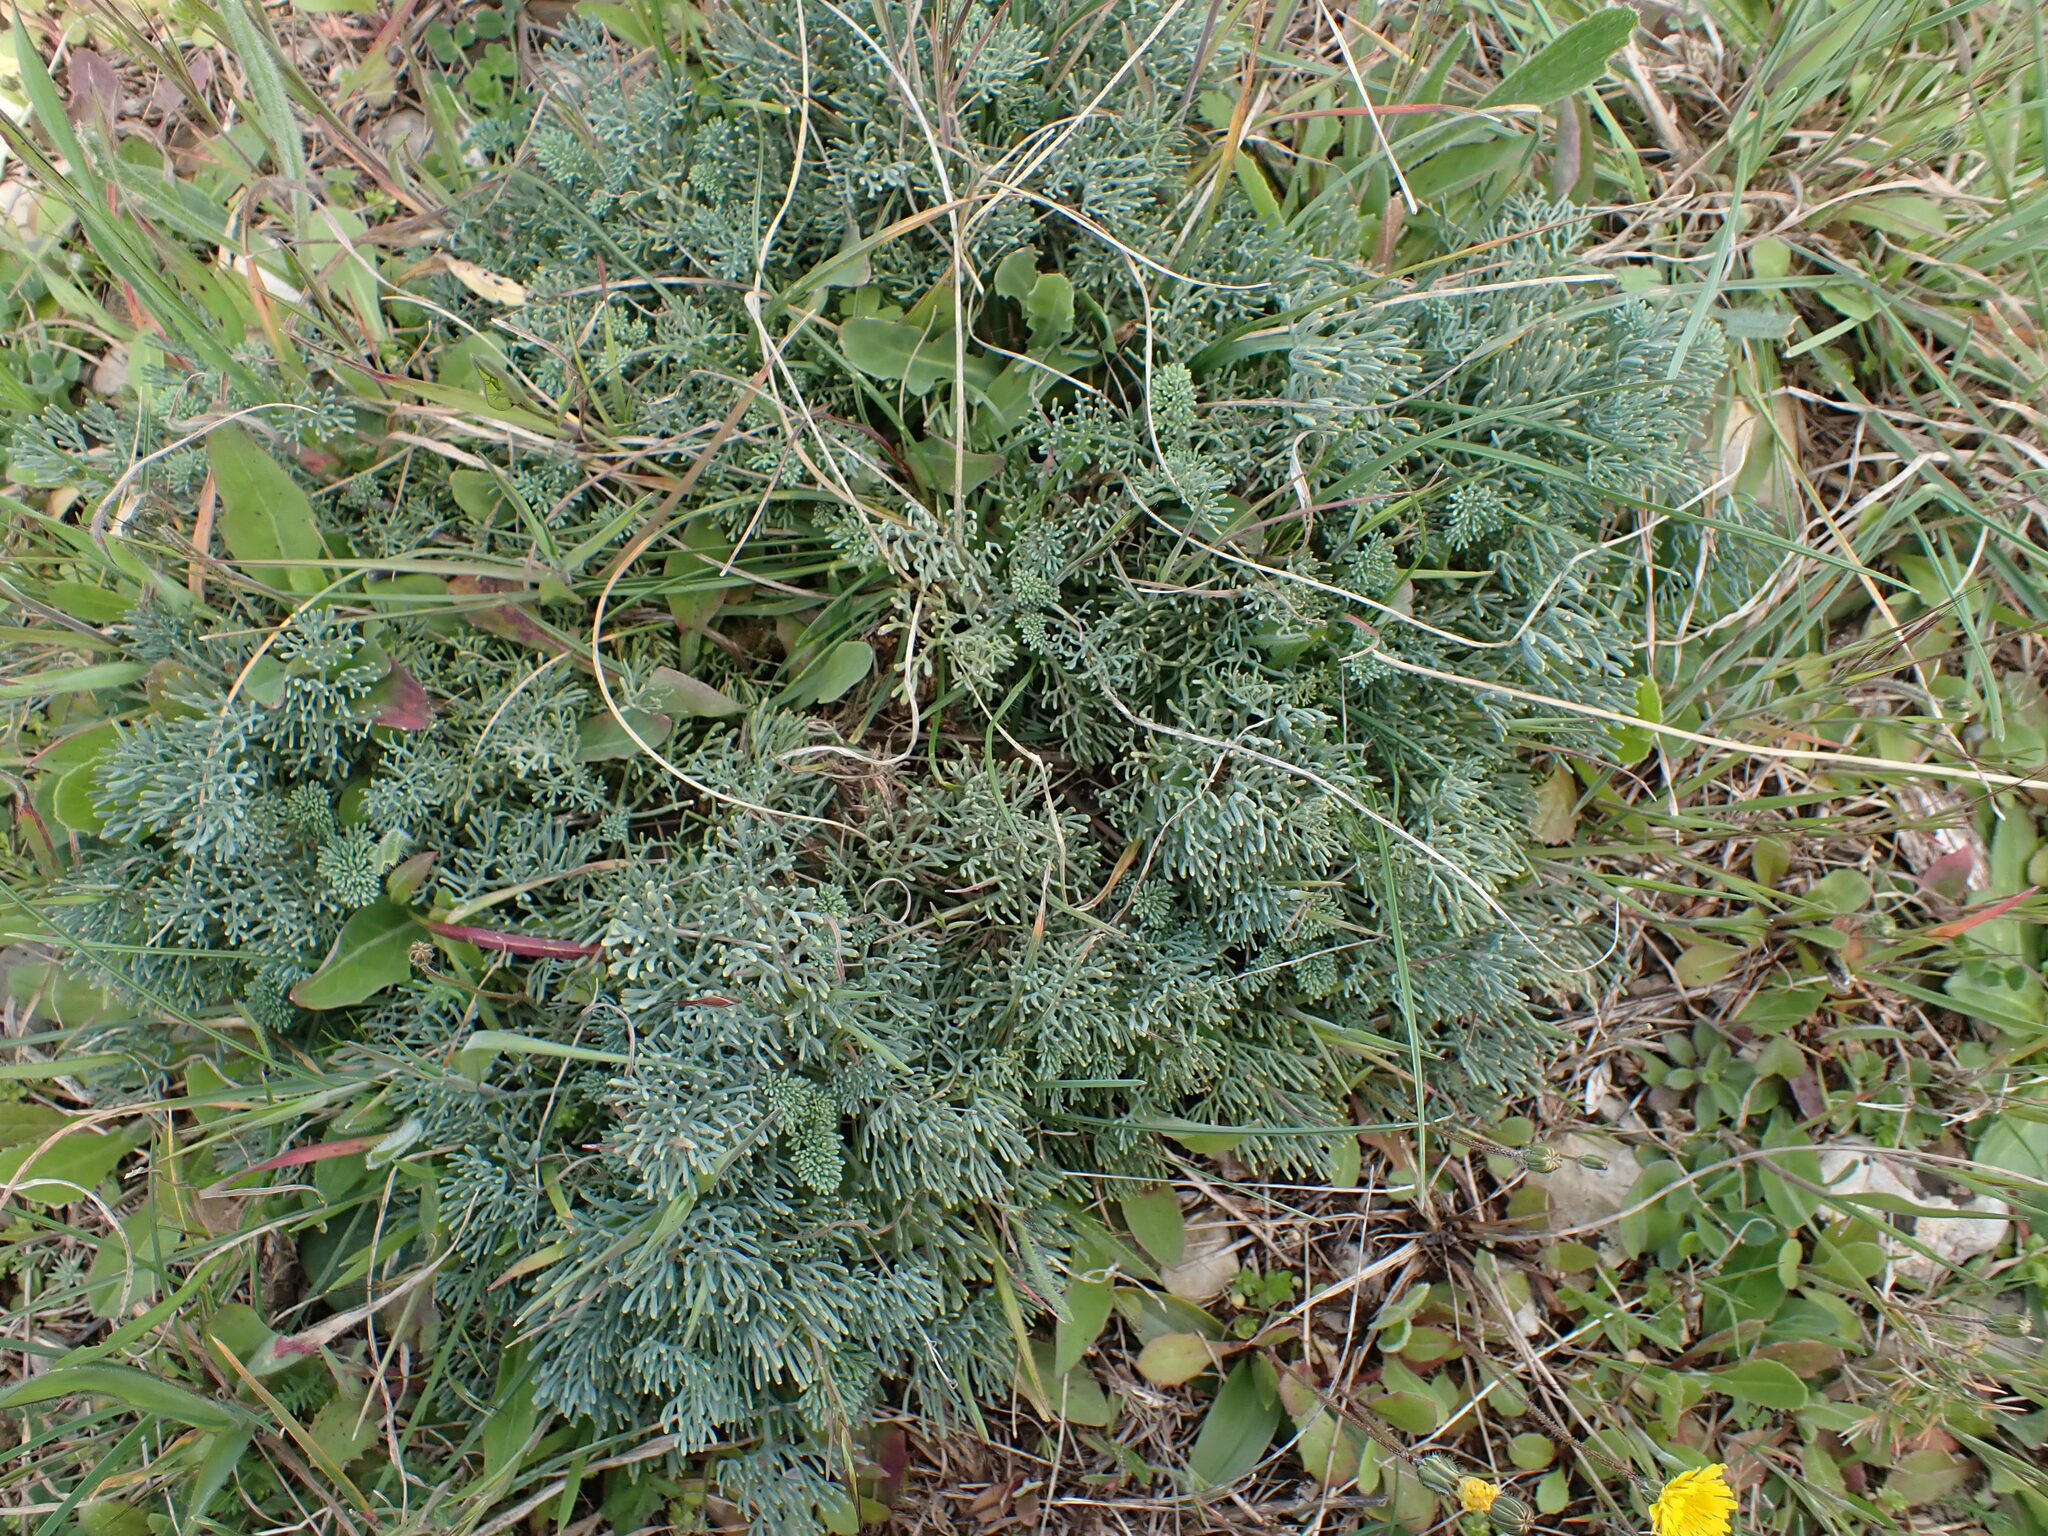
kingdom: Plantae
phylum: Tracheophyta
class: Magnoliopsida
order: Sapindales
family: Rutaceae
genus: Ruta
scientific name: Ruta montana
